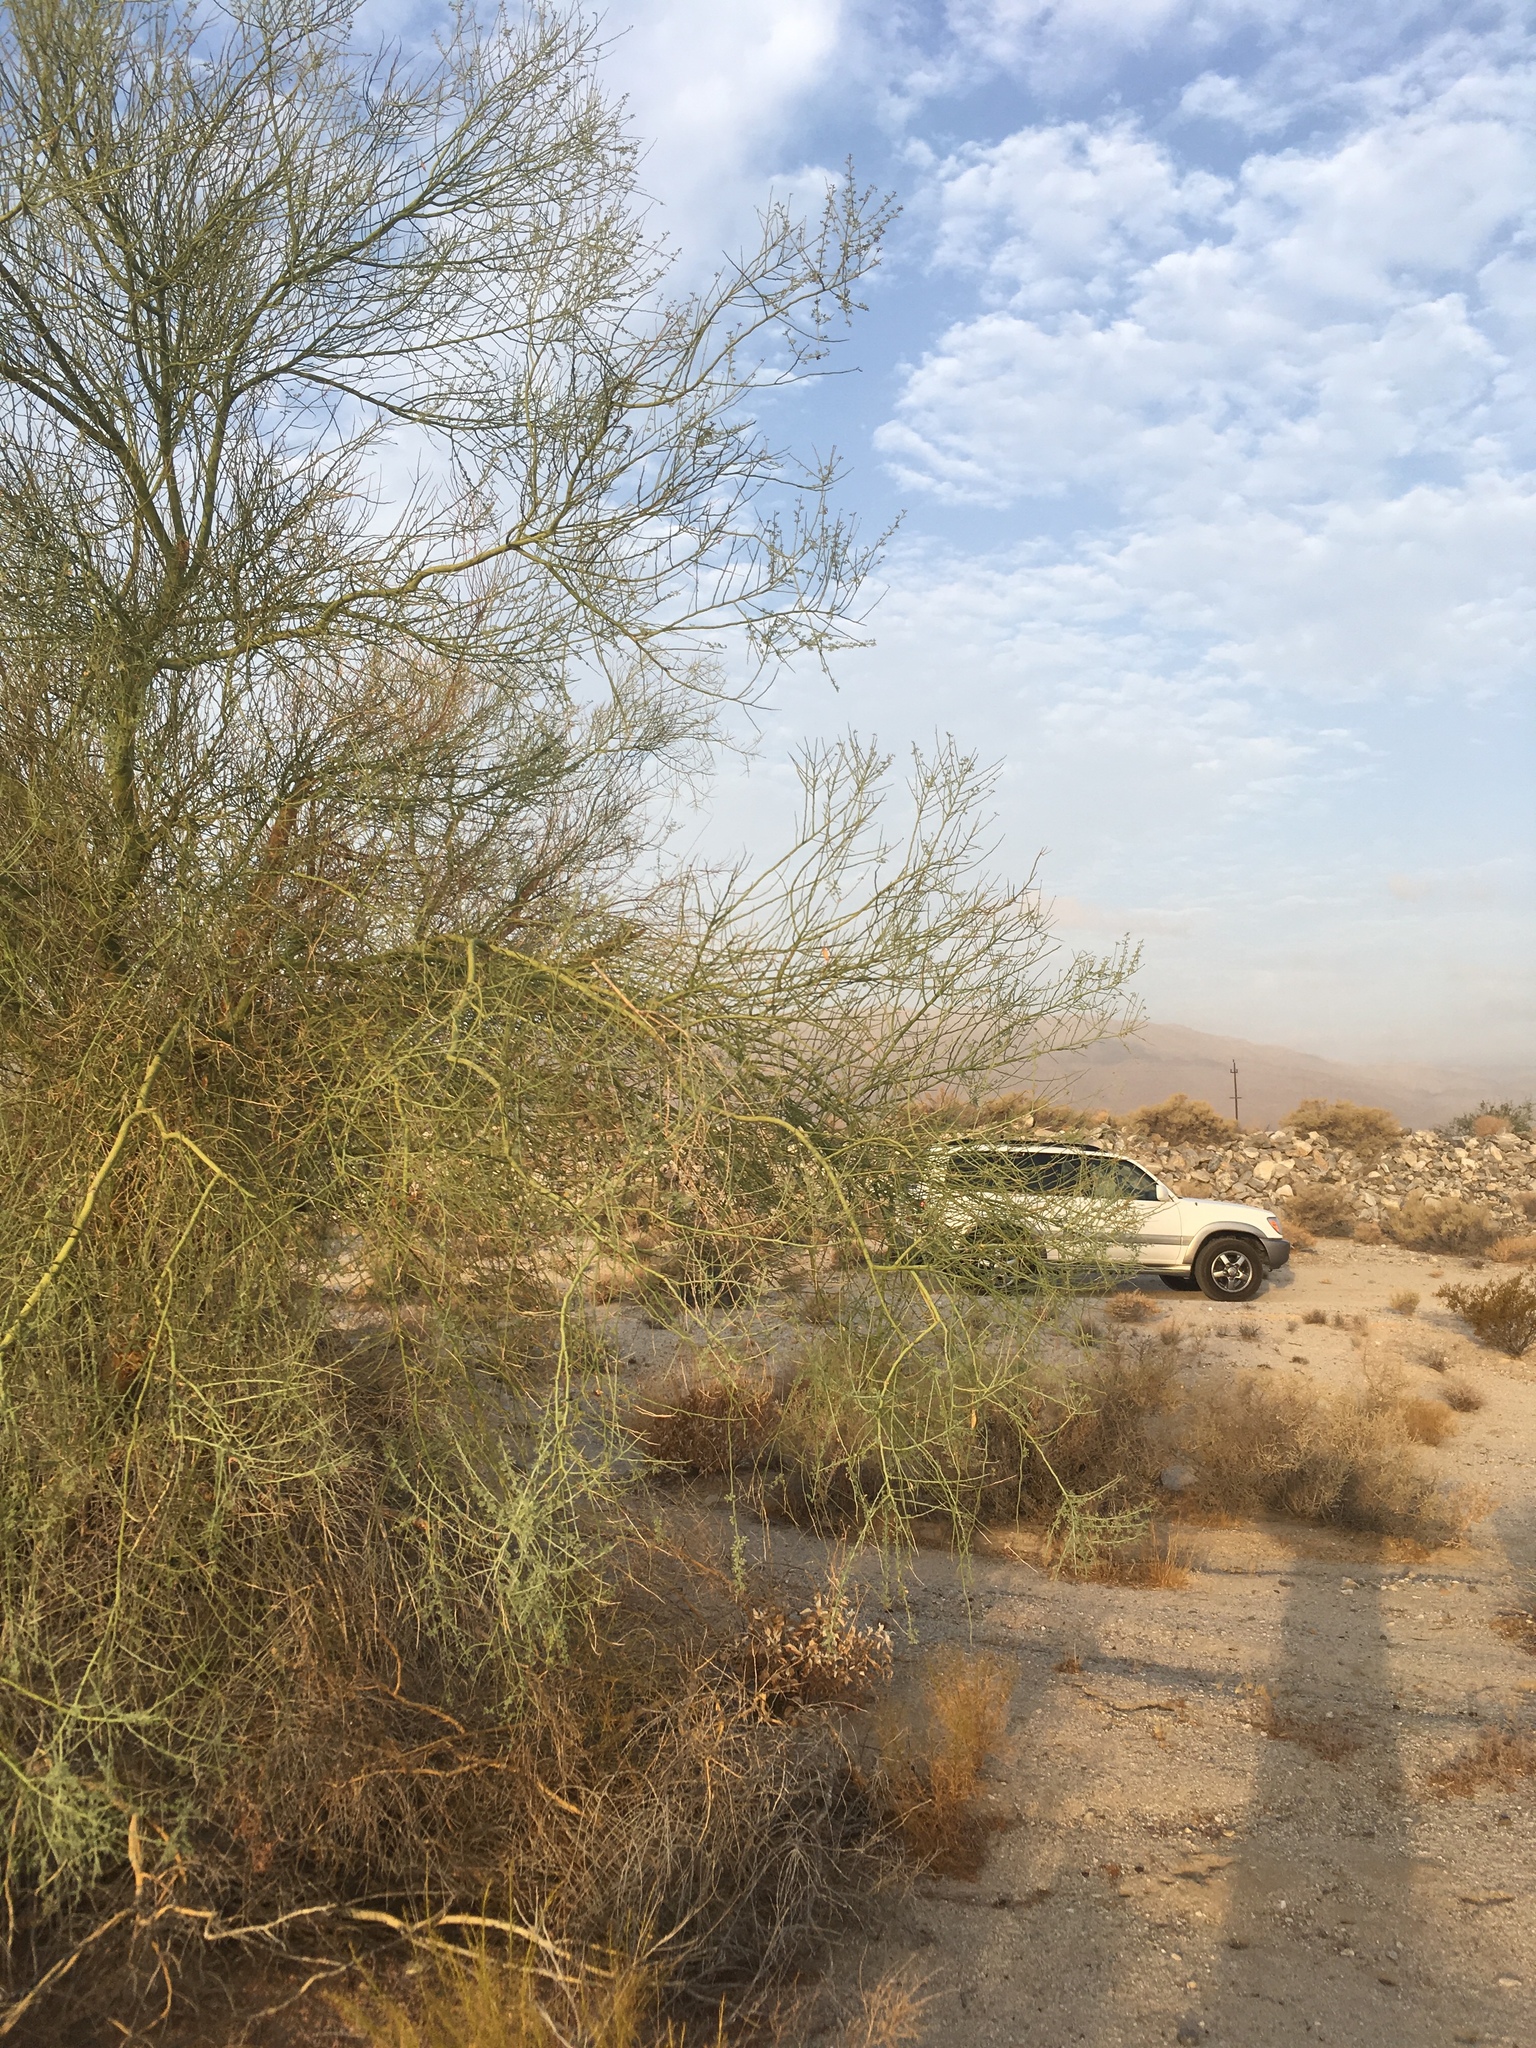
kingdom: Plantae
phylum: Tracheophyta
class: Magnoliopsida
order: Fabales
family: Fabaceae
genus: Parkinsonia
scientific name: Parkinsonia florida
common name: Blue paloverde
